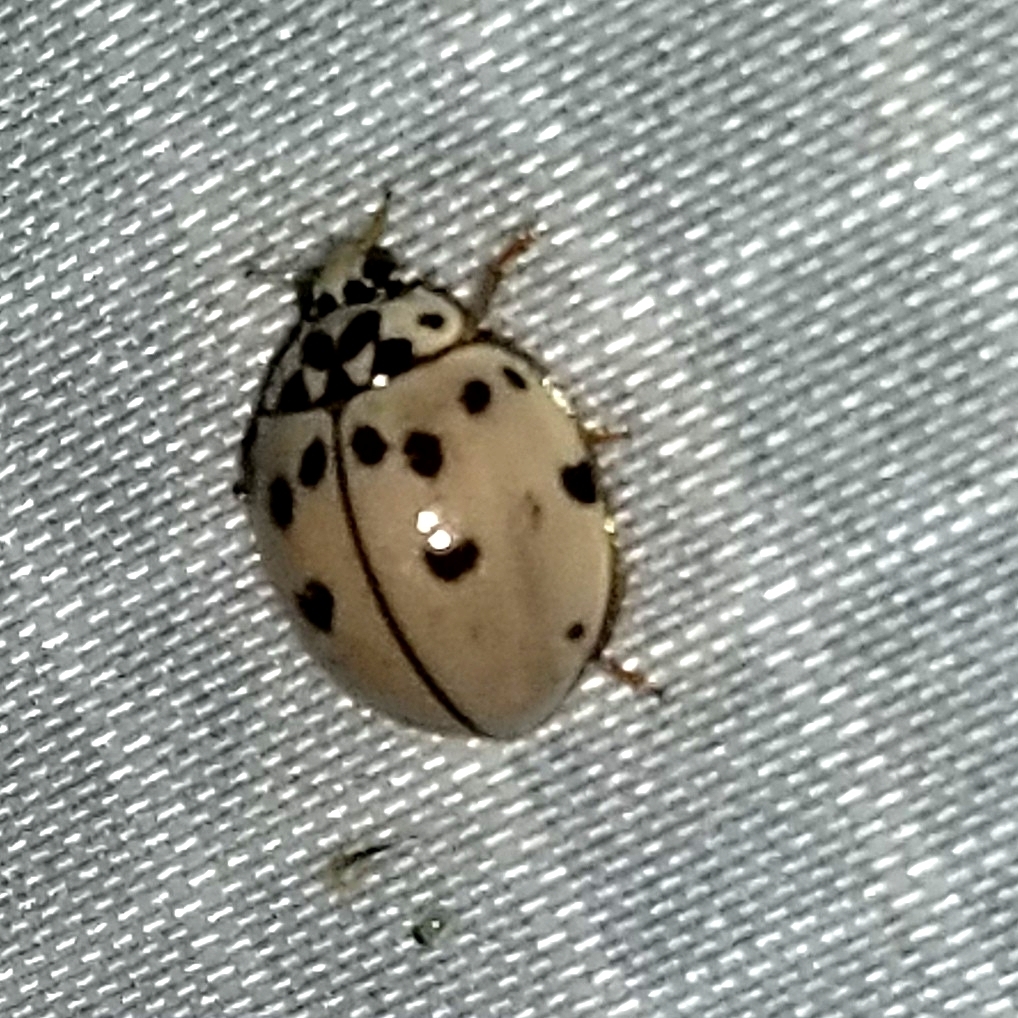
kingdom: Animalia
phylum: Arthropoda
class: Insecta
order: Coleoptera
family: Coccinellidae
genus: Olla
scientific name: Olla v-nigrum
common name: Ashy gray lady beetle
